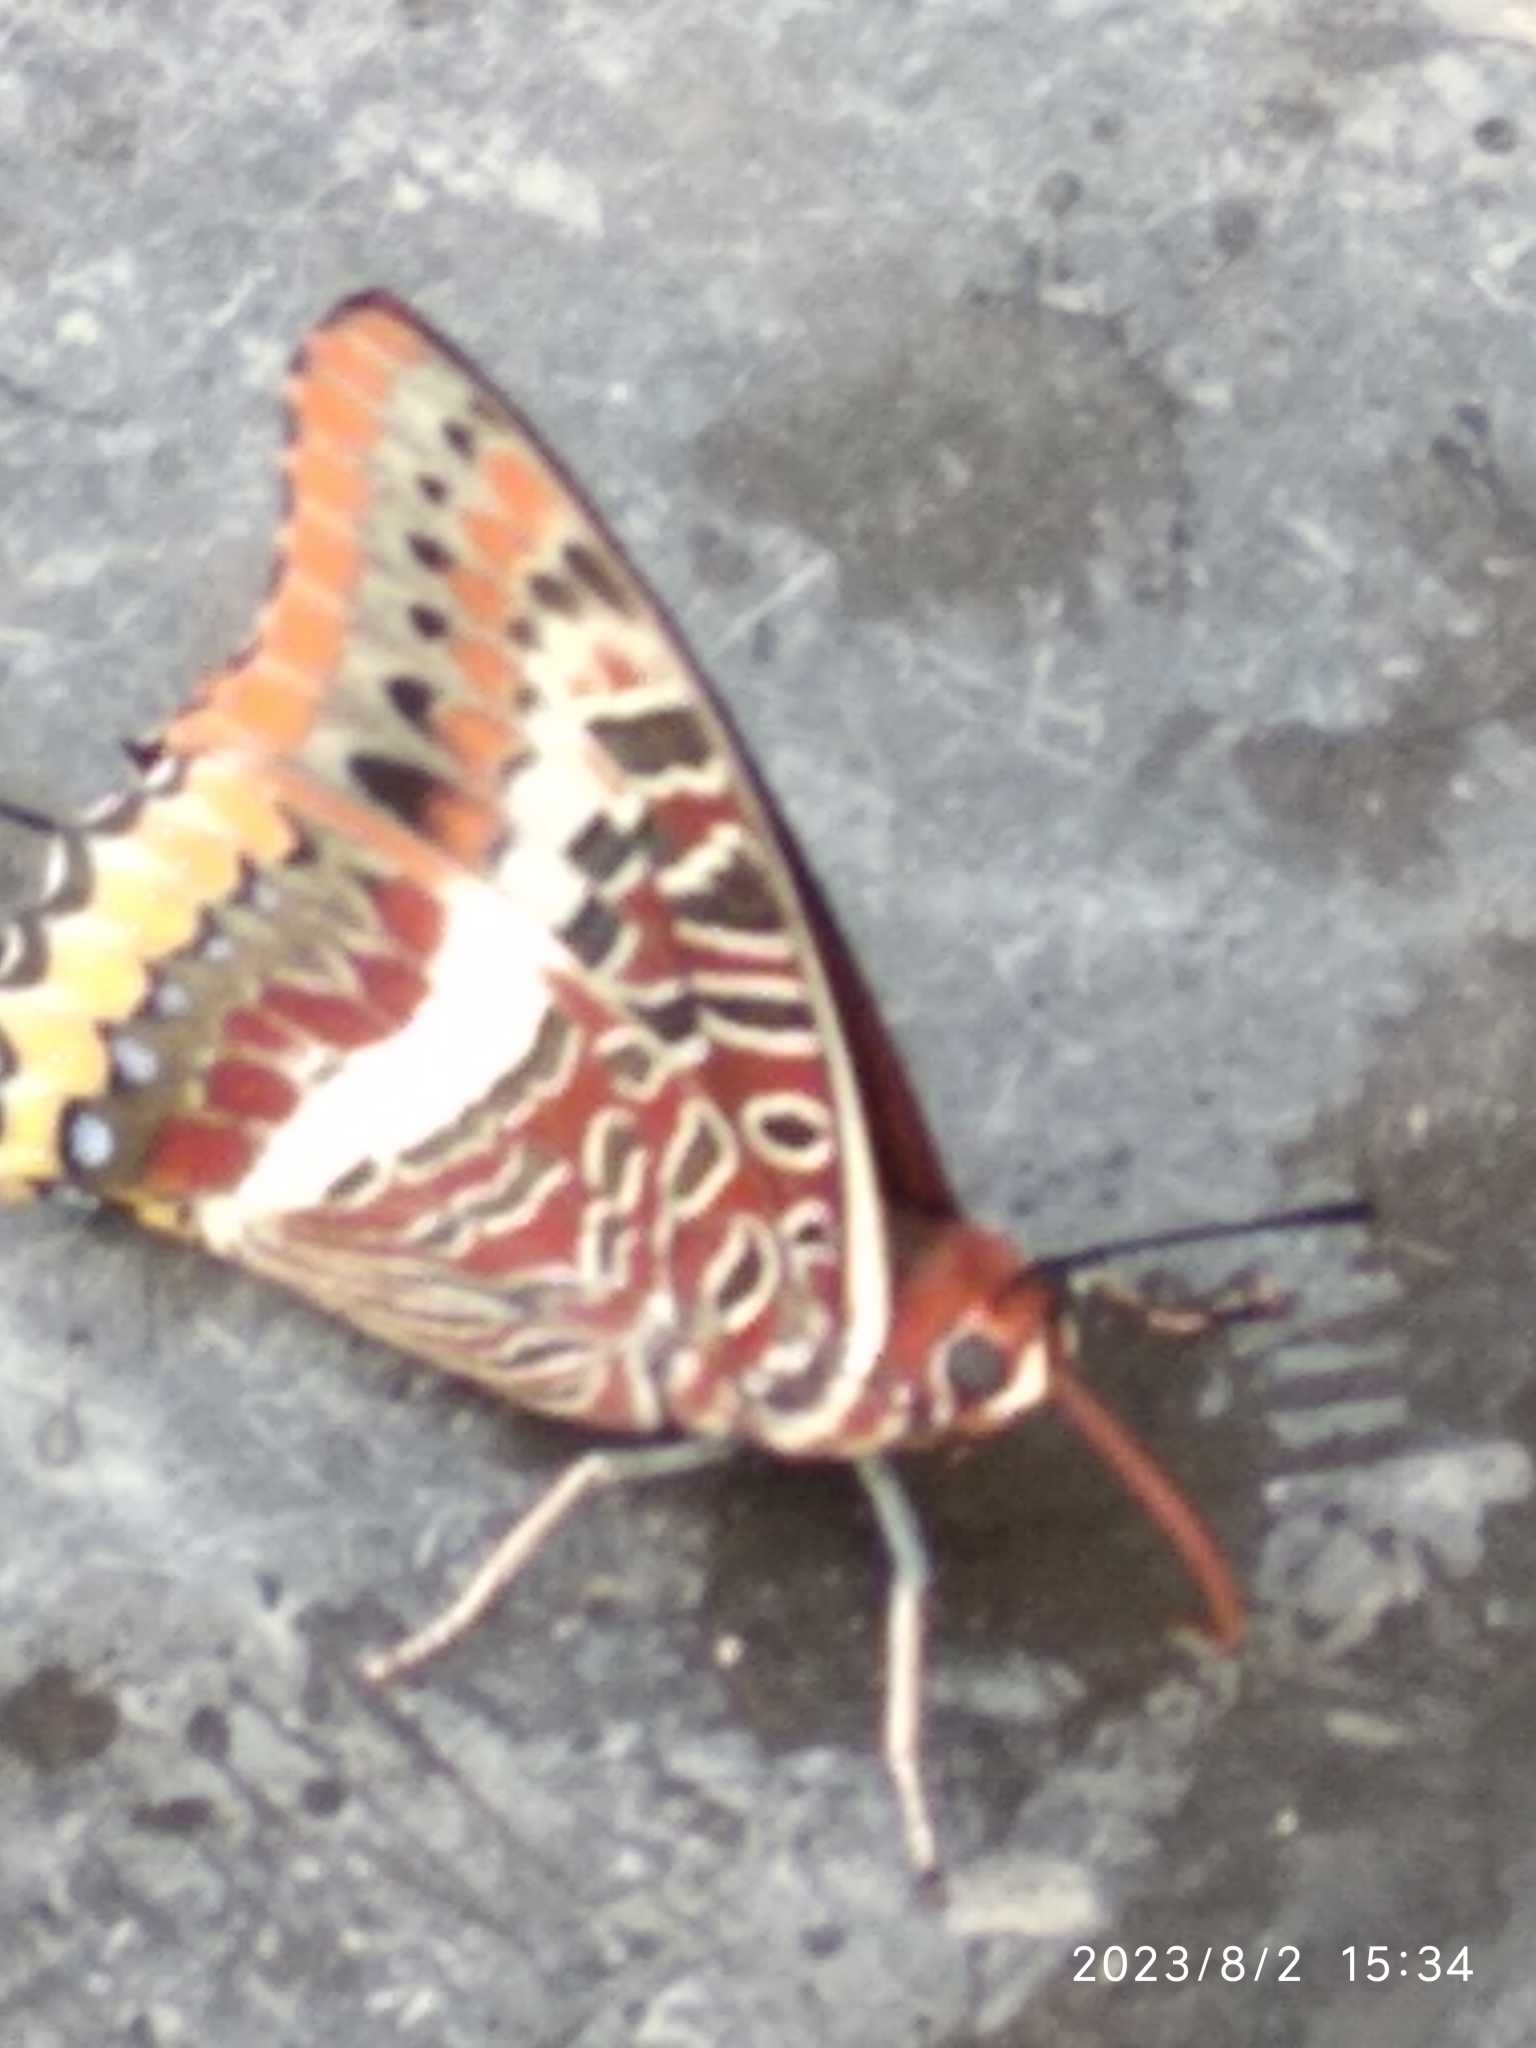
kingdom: Animalia
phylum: Arthropoda
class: Insecta
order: Lepidoptera
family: Nymphalidae
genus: Charaxes
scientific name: Charaxes jasius
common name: Two tailed pasha
